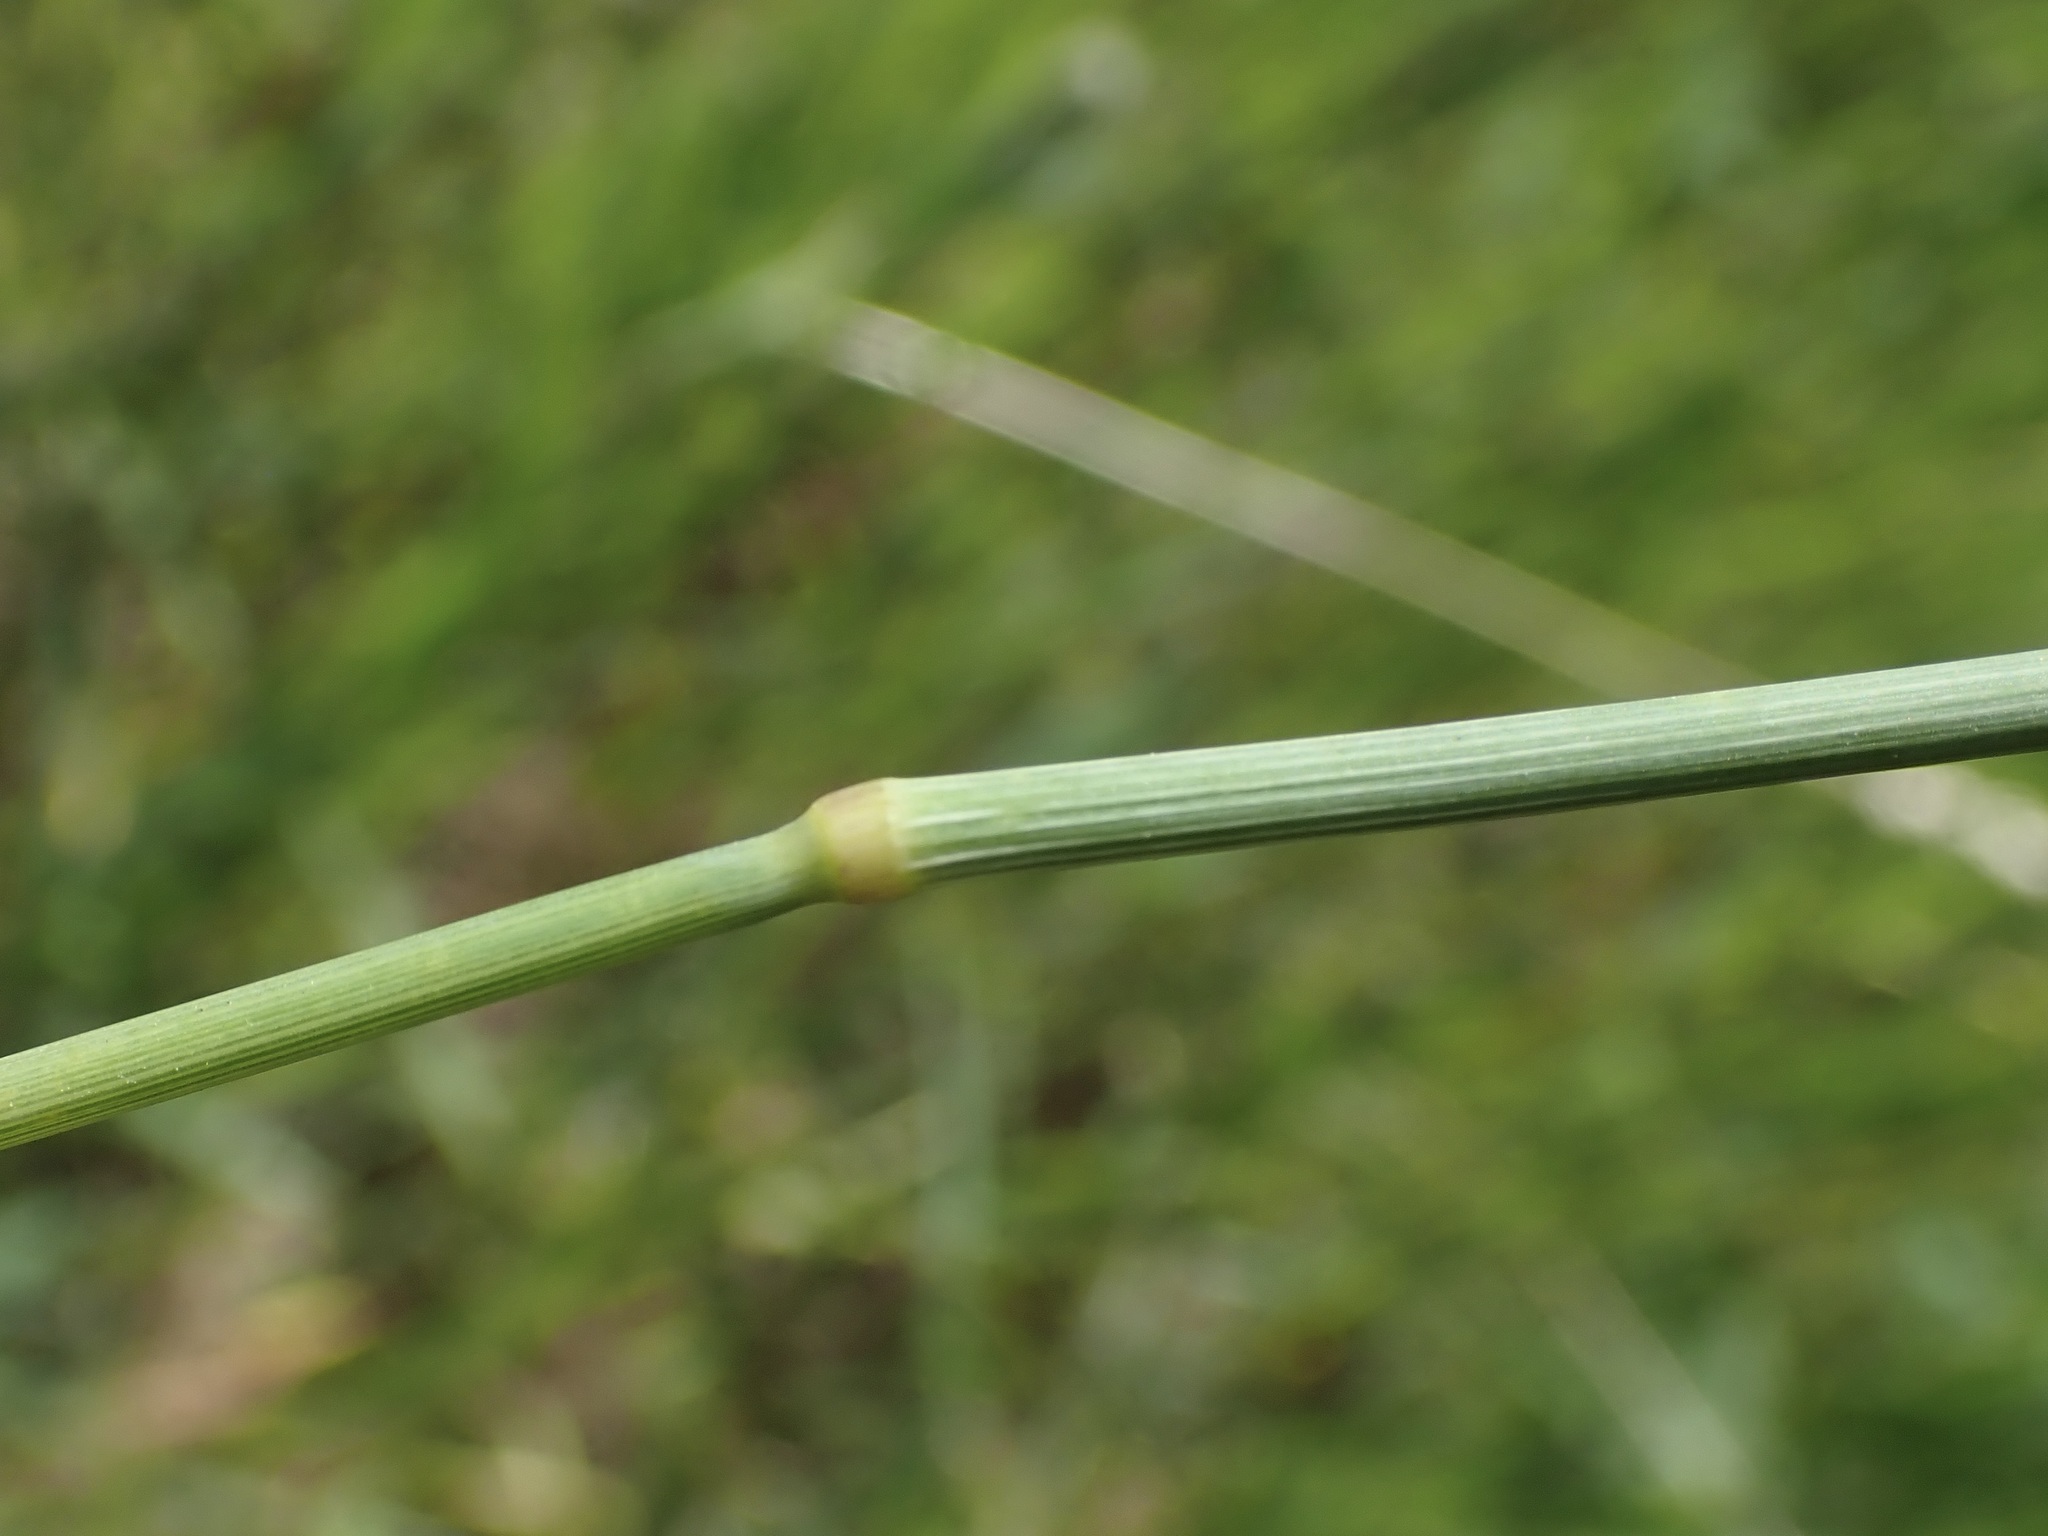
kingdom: Plantae
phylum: Tracheophyta
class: Liliopsida
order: Poales
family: Poaceae
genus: Phleum
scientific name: Phleum pratense
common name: Timothy grass
